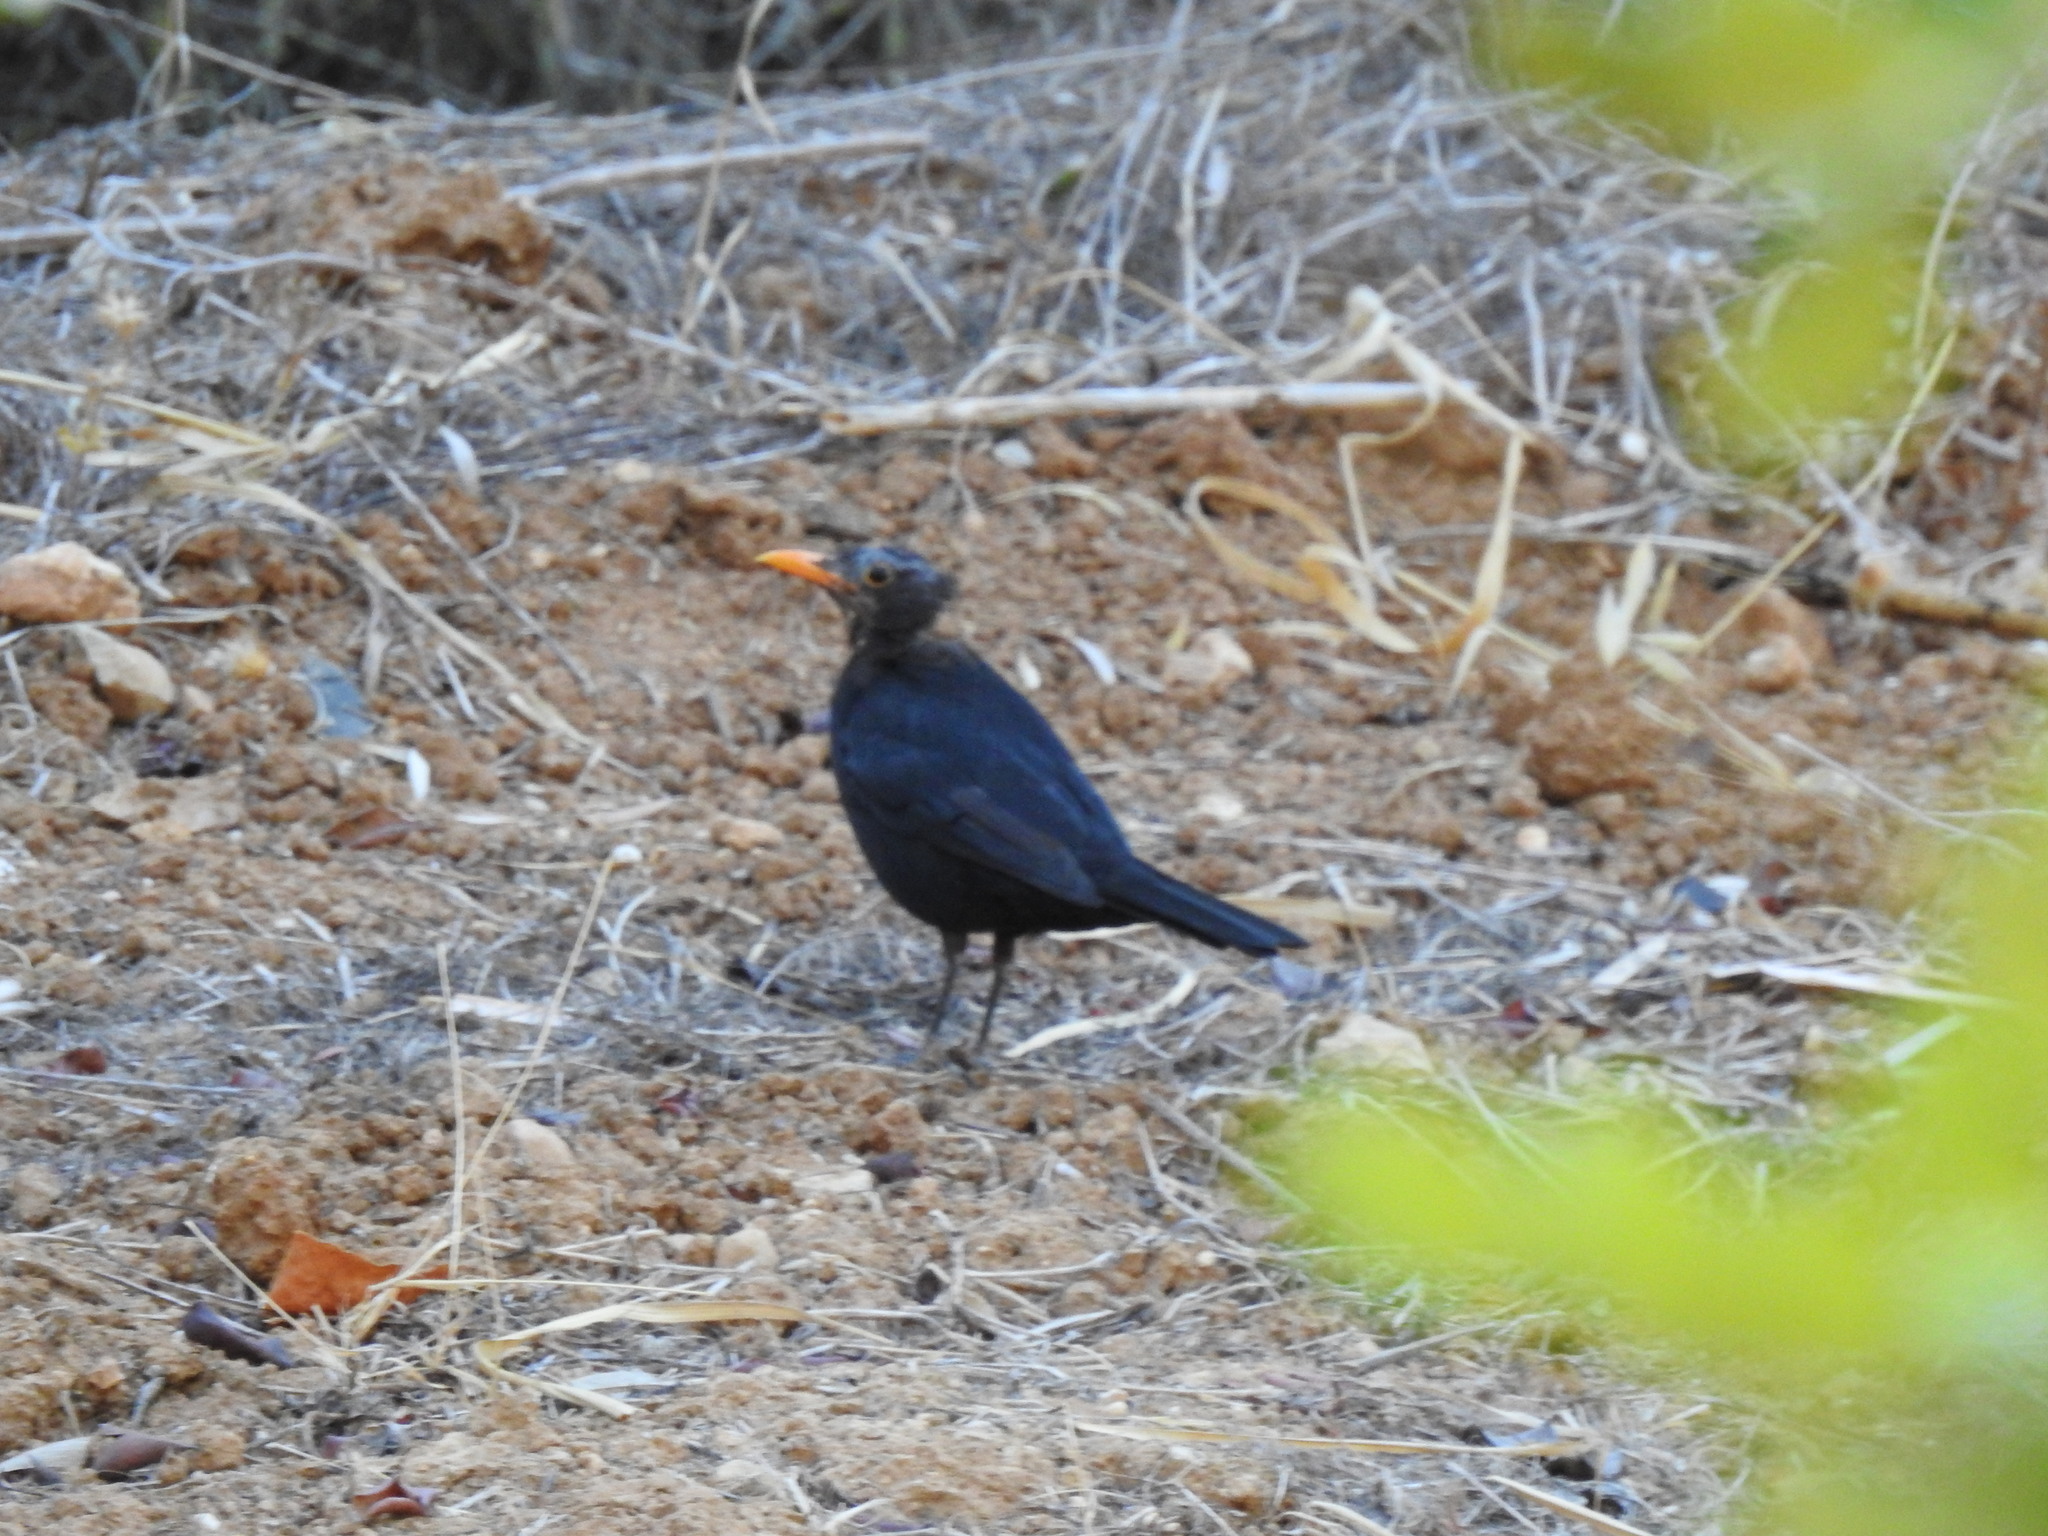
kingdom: Animalia
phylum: Chordata
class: Aves
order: Passeriformes
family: Turdidae
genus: Turdus
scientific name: Turdus merula
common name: Common blackbird
